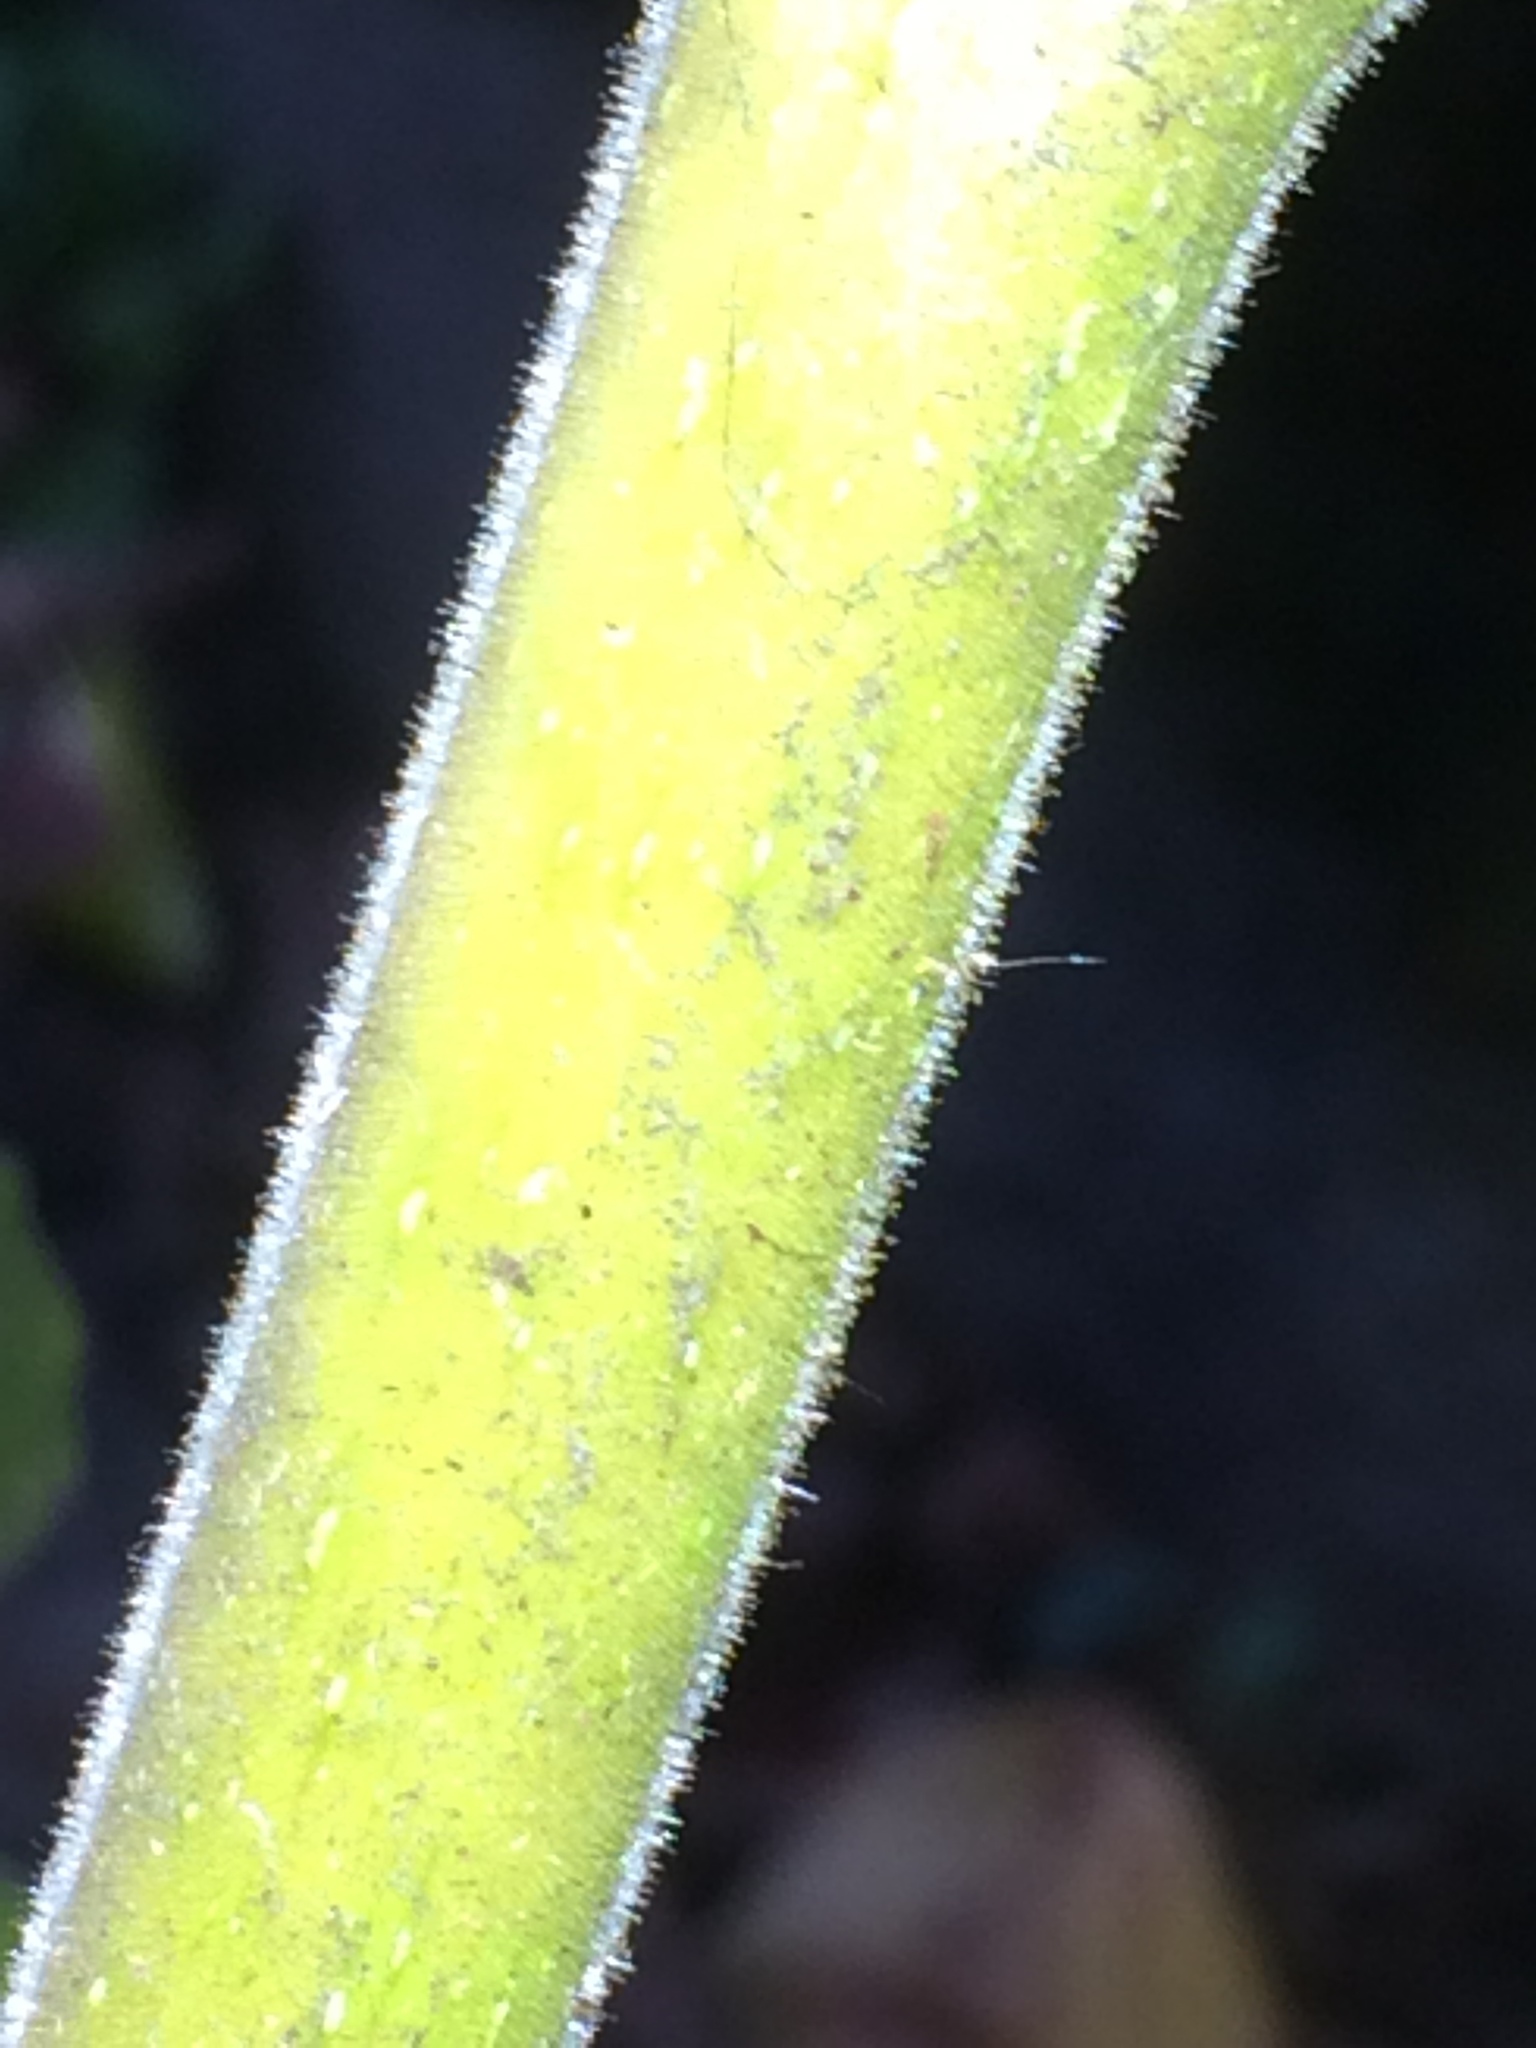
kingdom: Plantae
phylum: Tracheophyta
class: Magnoliopsida
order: Lamiales
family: Paulowniaceae
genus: Paulownia
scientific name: Paulownia tomentosa
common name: Foxglove-tree
